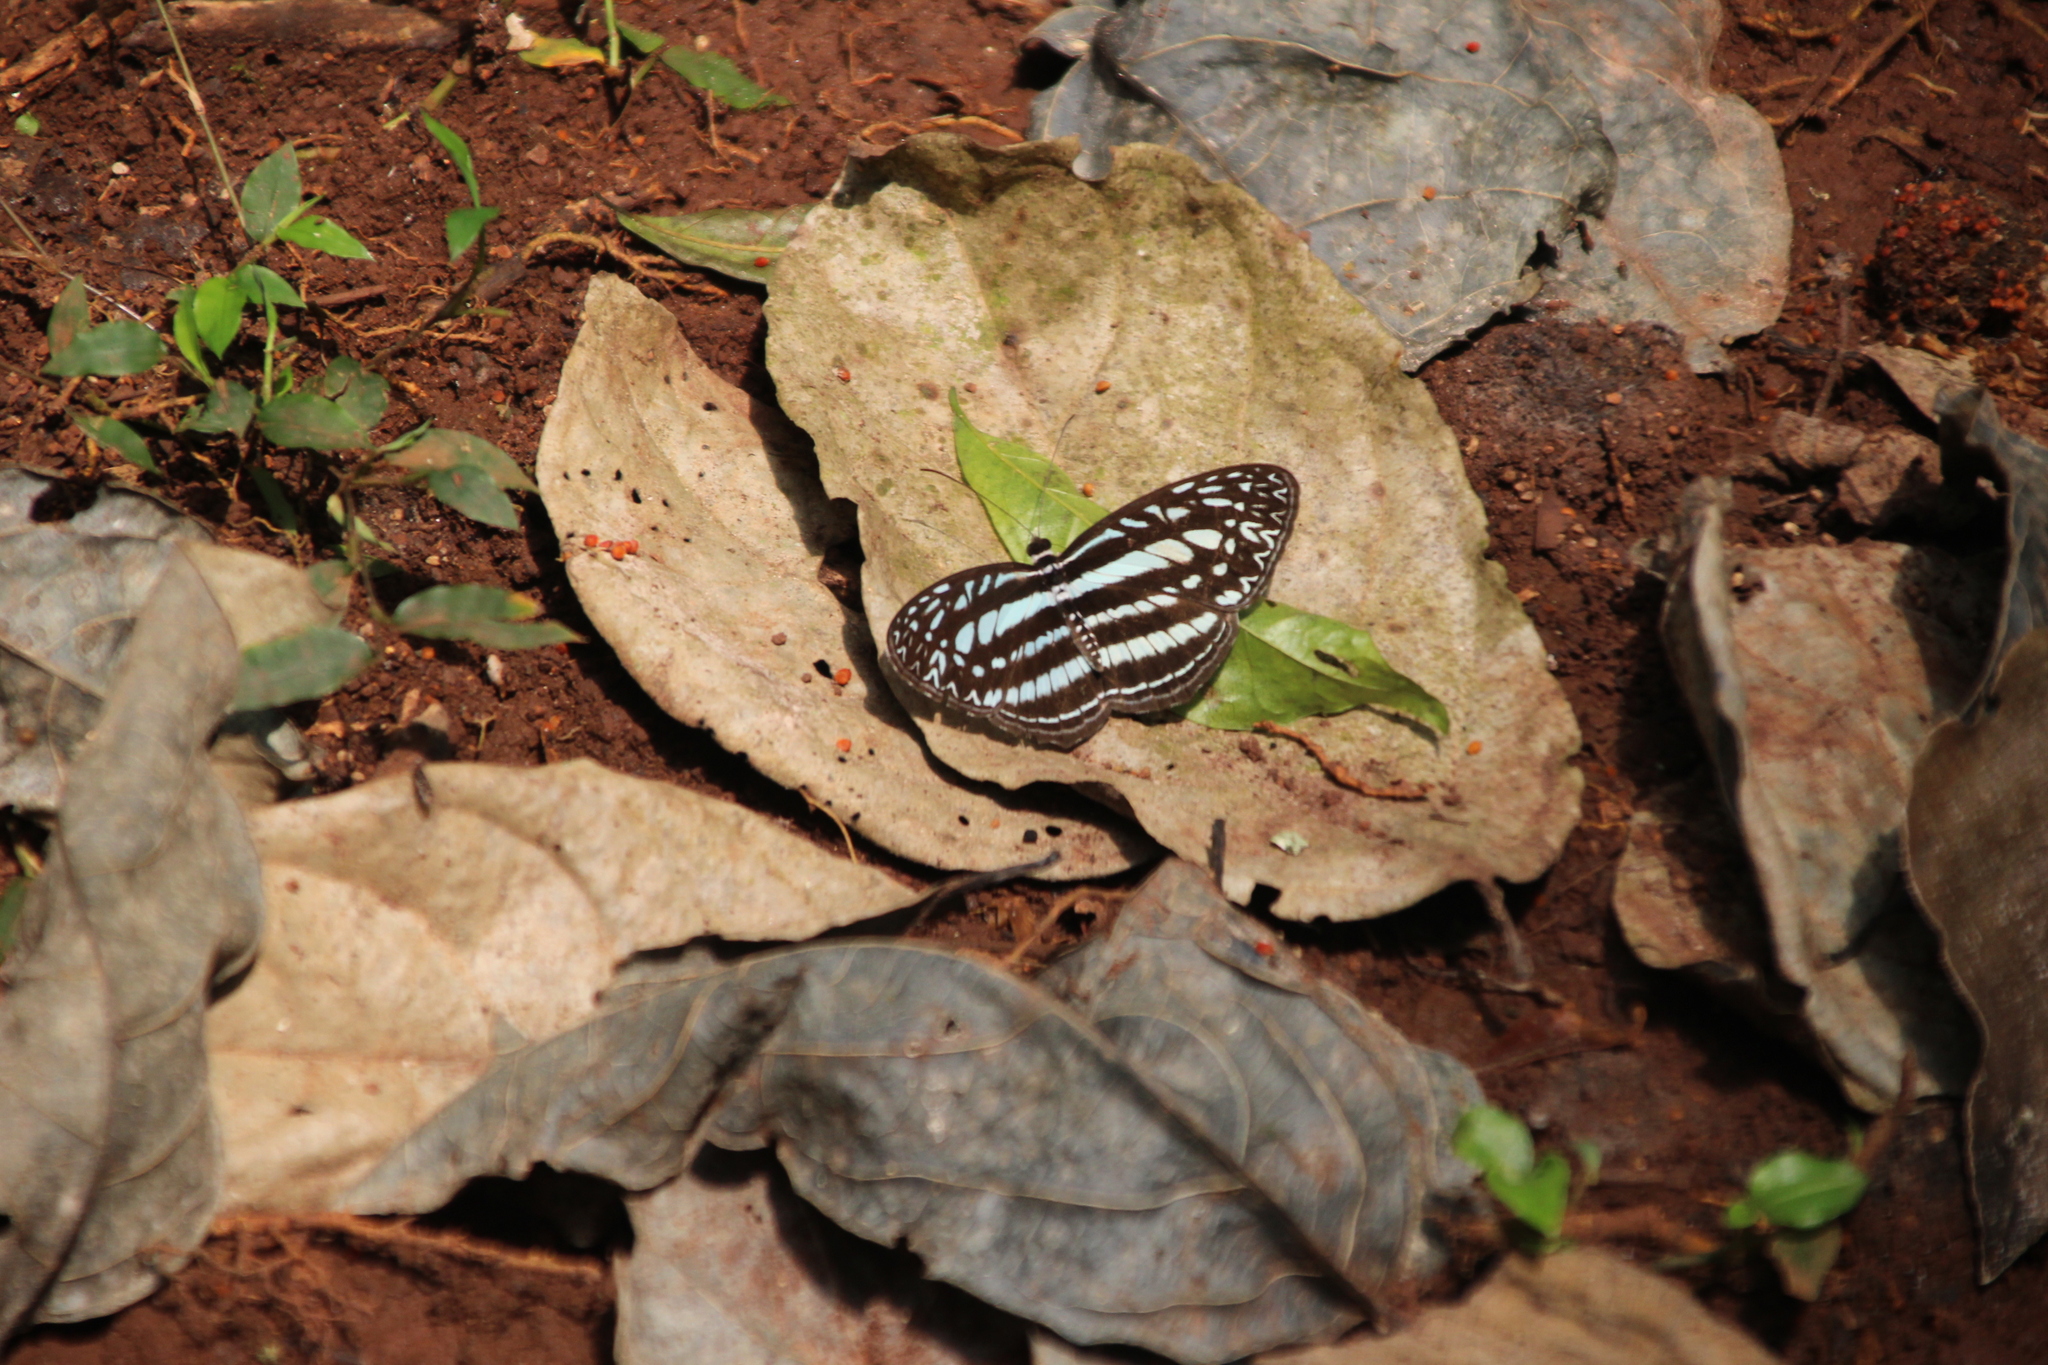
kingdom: Animalia
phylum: Arthropoda
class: Insecta
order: Lepidoptera
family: Nymphalidae
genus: Pseudoneptis
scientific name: Pseudoneptis bugandensis
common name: Blue sailer
